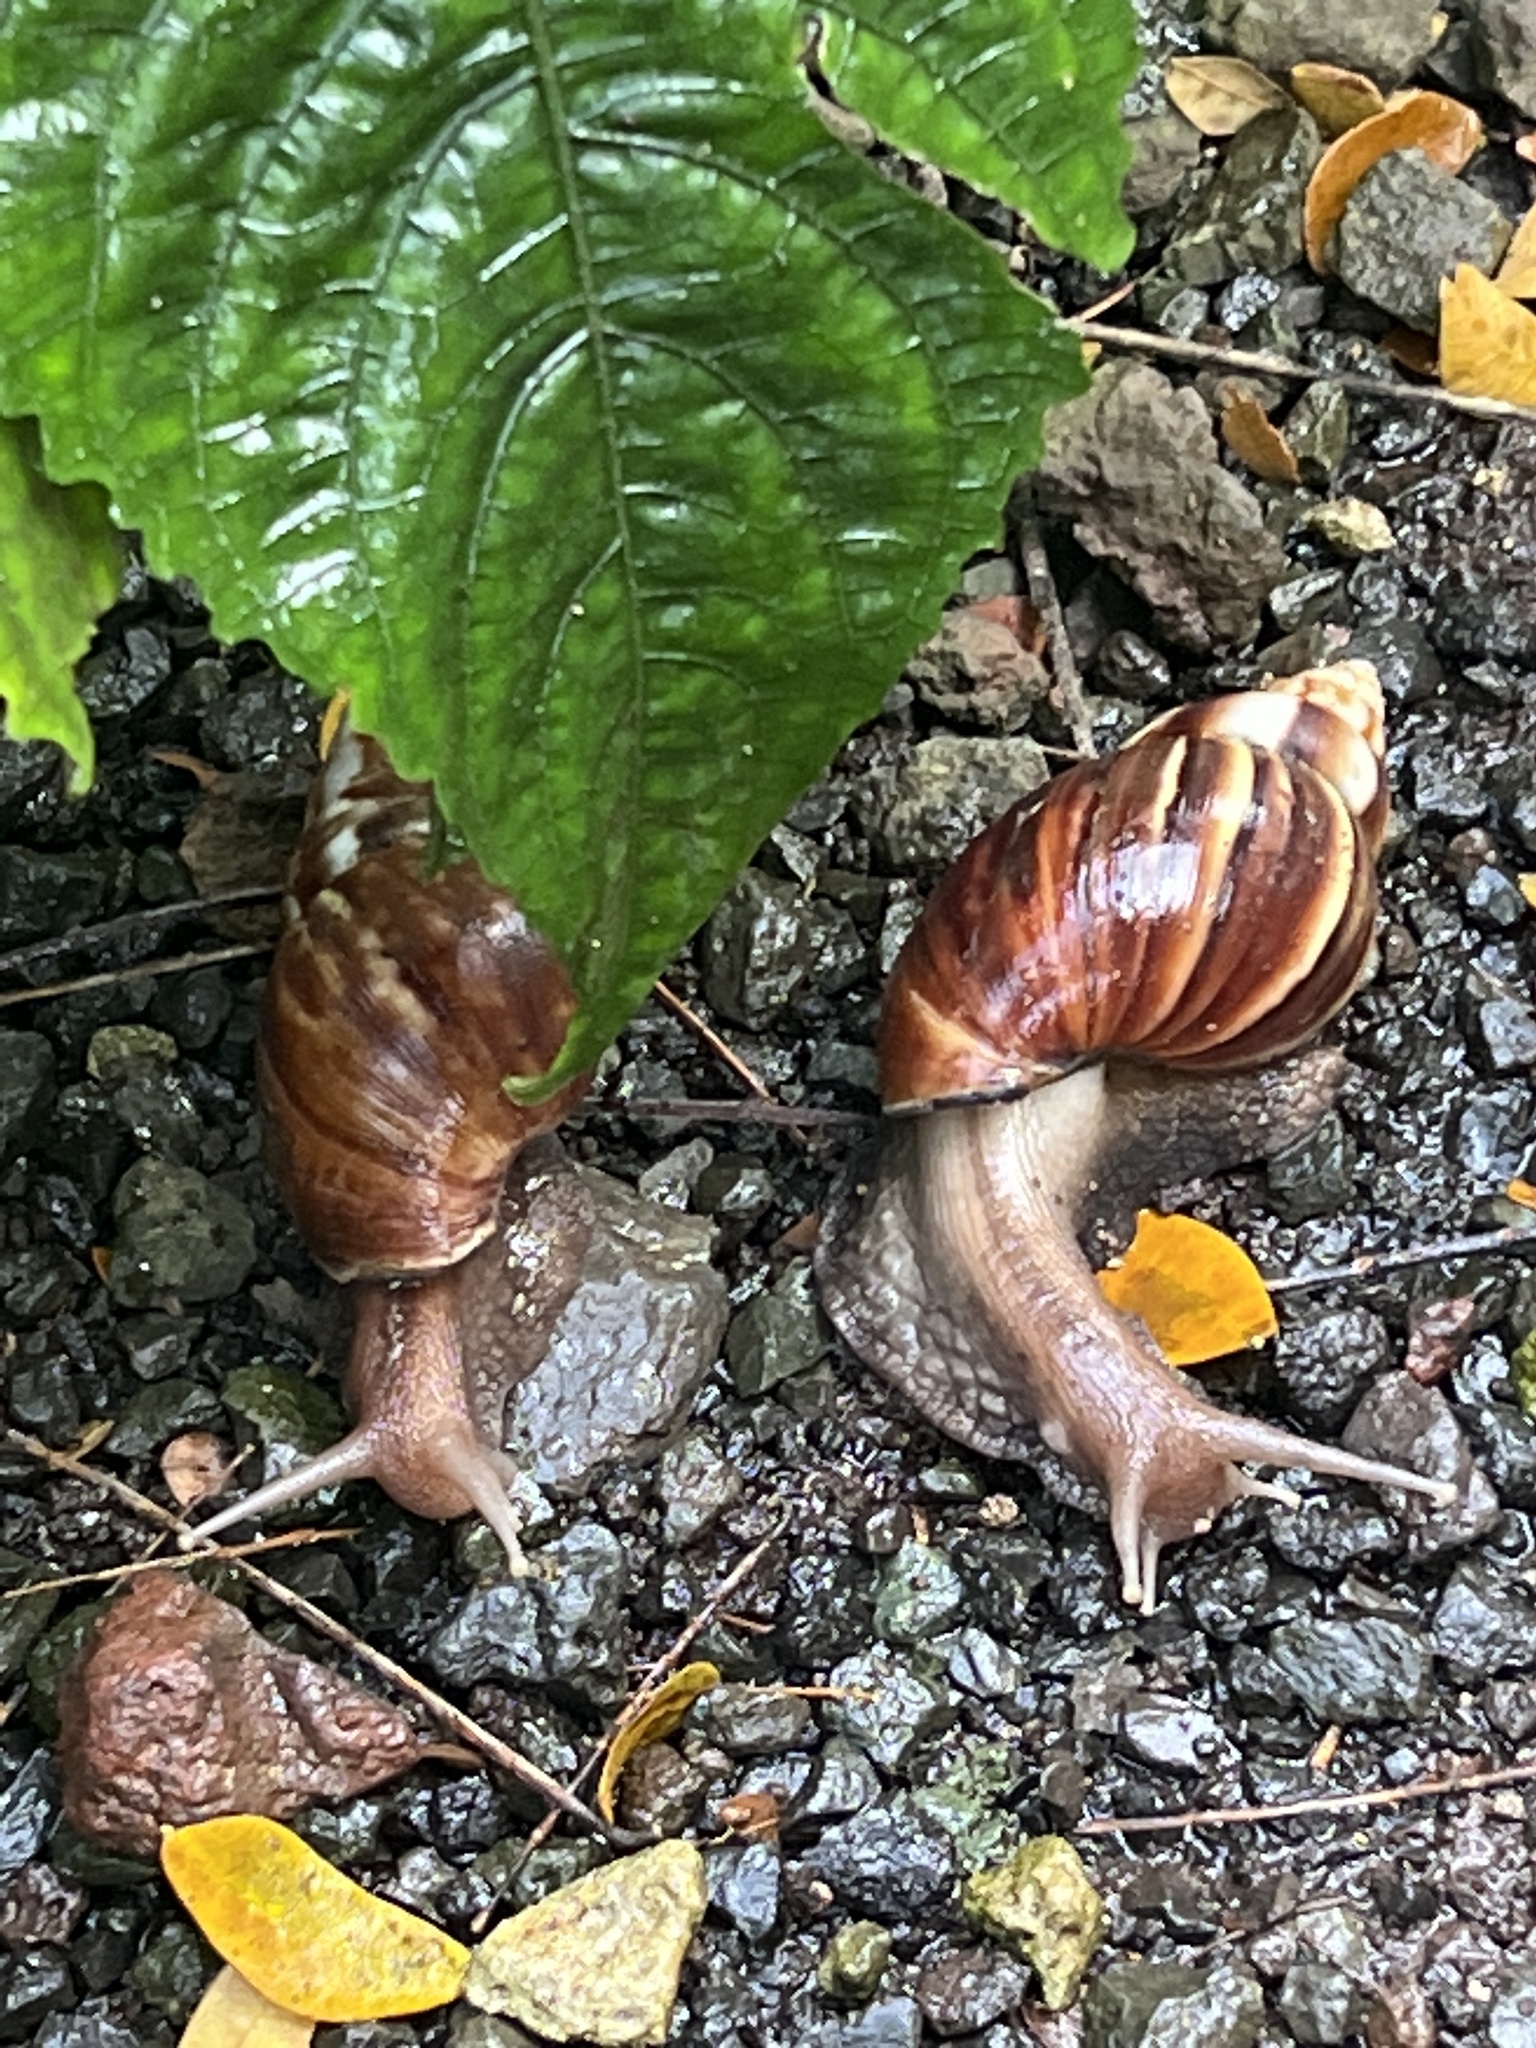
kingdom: Animalia
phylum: Mollusca
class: Gastropoda
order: Stylommatophora
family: Achatinidae
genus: Lissachatina
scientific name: Lissachatina fulica
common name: Giant african snail
